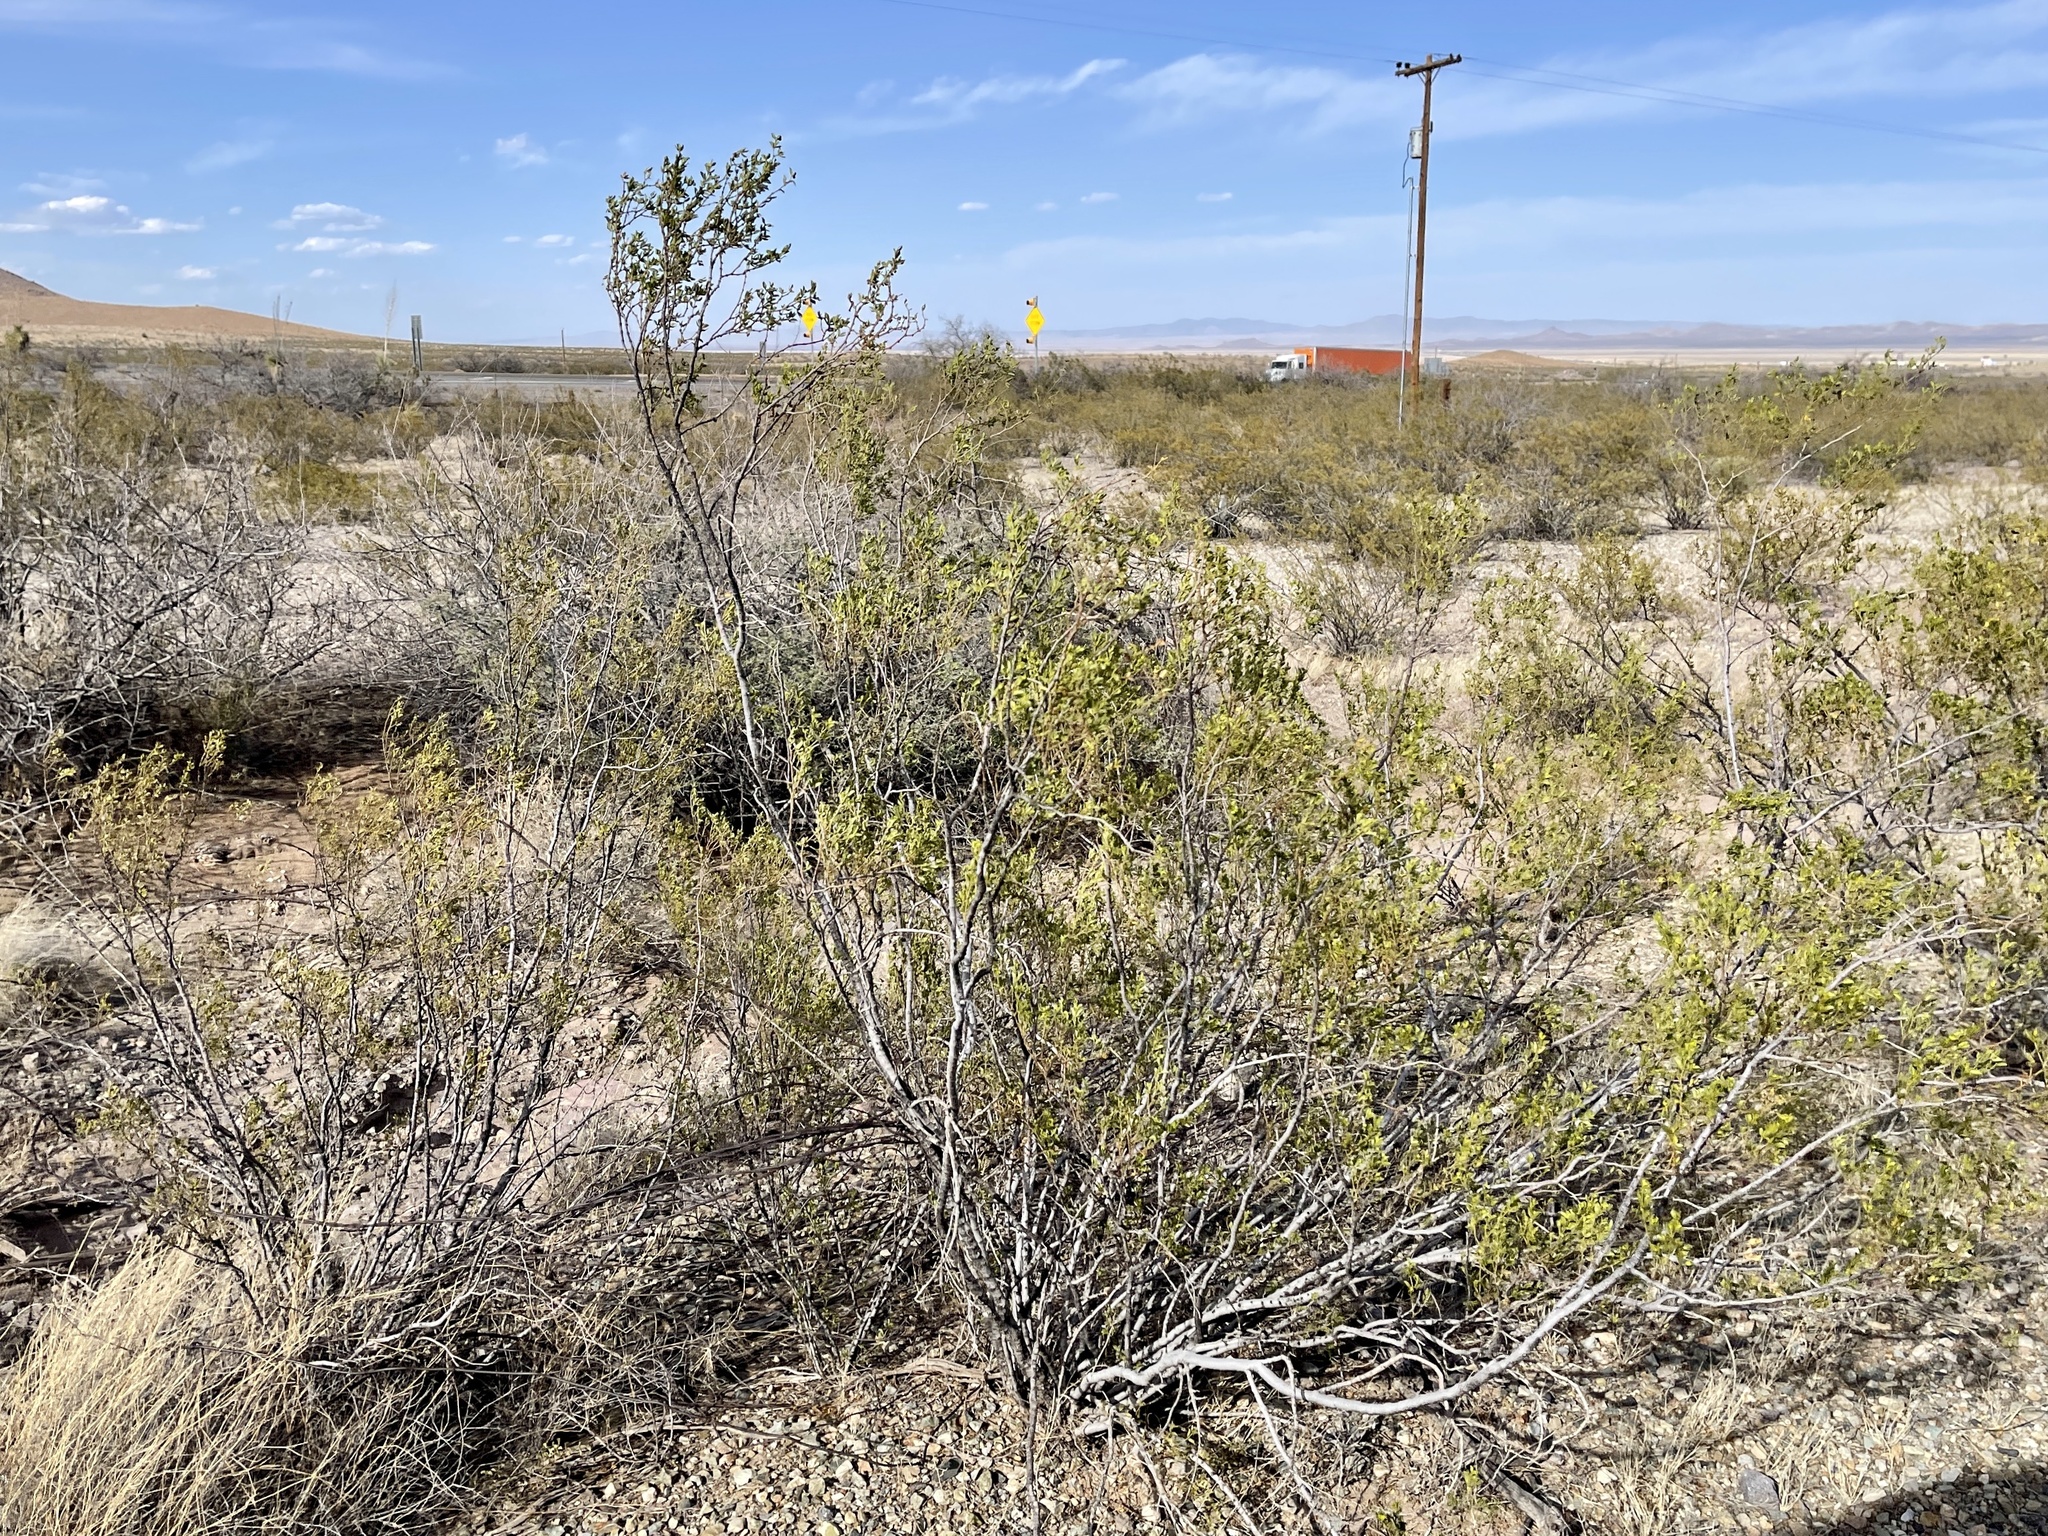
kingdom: Plantae
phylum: Tracheophyta
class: Magnoliopsida
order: Zygophyllales
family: Zygophyllaceae
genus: Larrea
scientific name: Larrea tridentata
